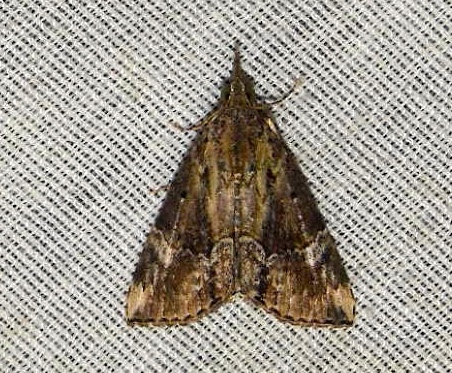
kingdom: Animalia
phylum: Arthropoda
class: Insecta
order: Lepidoptera
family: Erebidae
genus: Hypena
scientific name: Hypena
